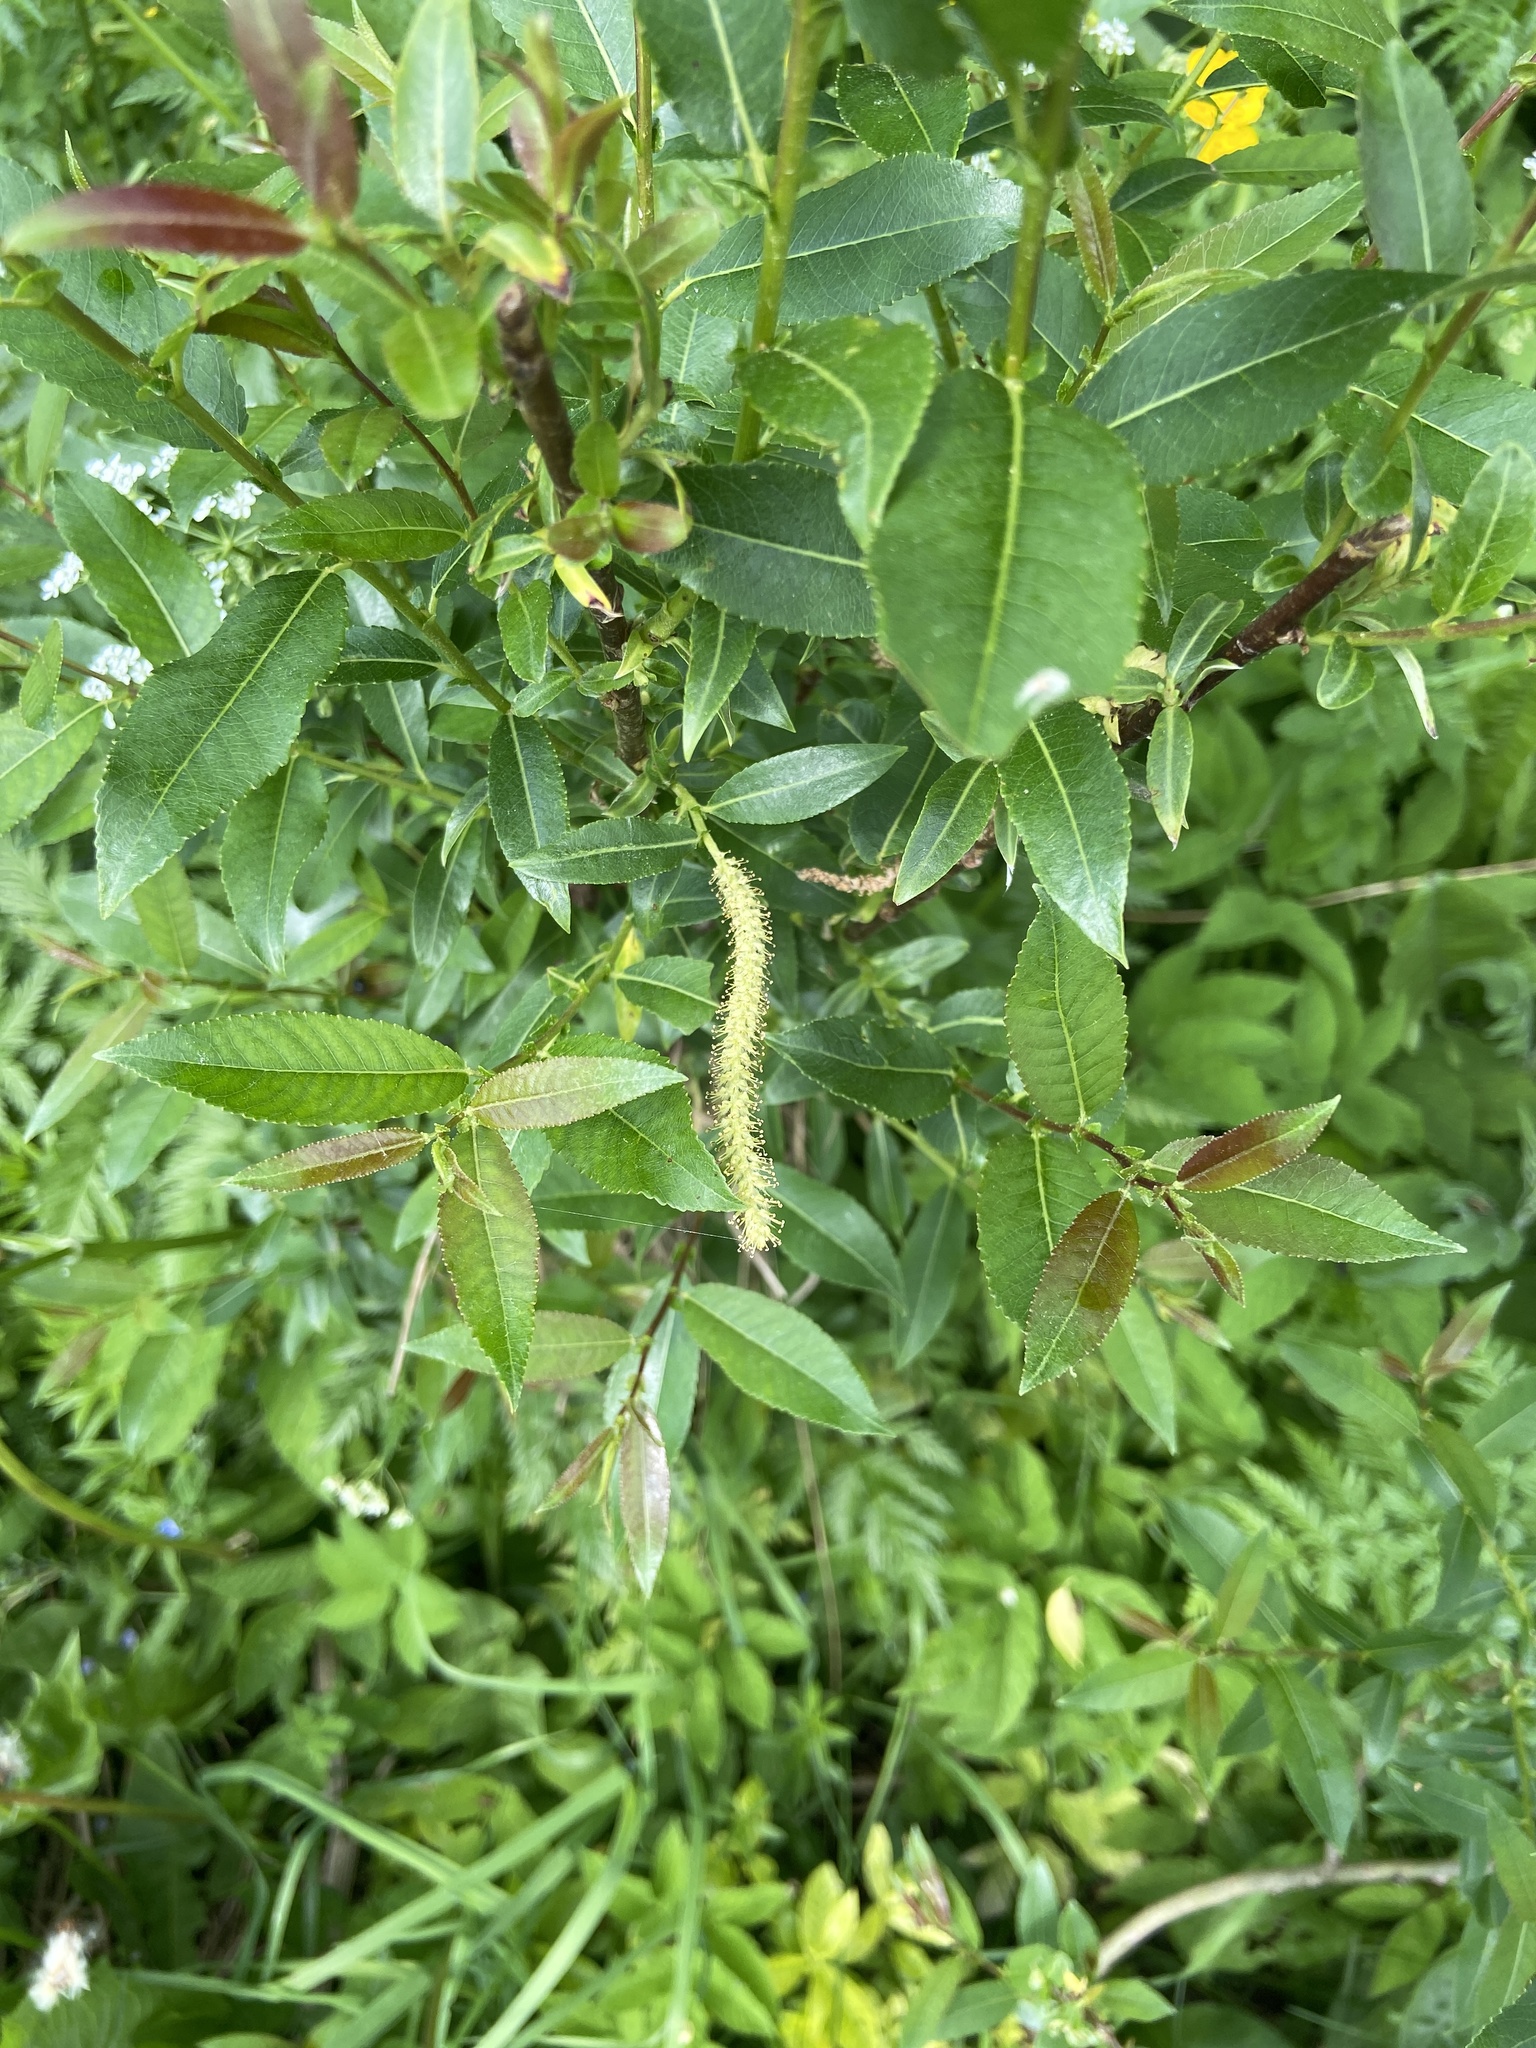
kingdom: Plantae
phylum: Tracheophyta
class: Magnoliopsida
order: Malpighiales
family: Salicaceae
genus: Salix
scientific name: Salix triandra
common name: Almond willow
